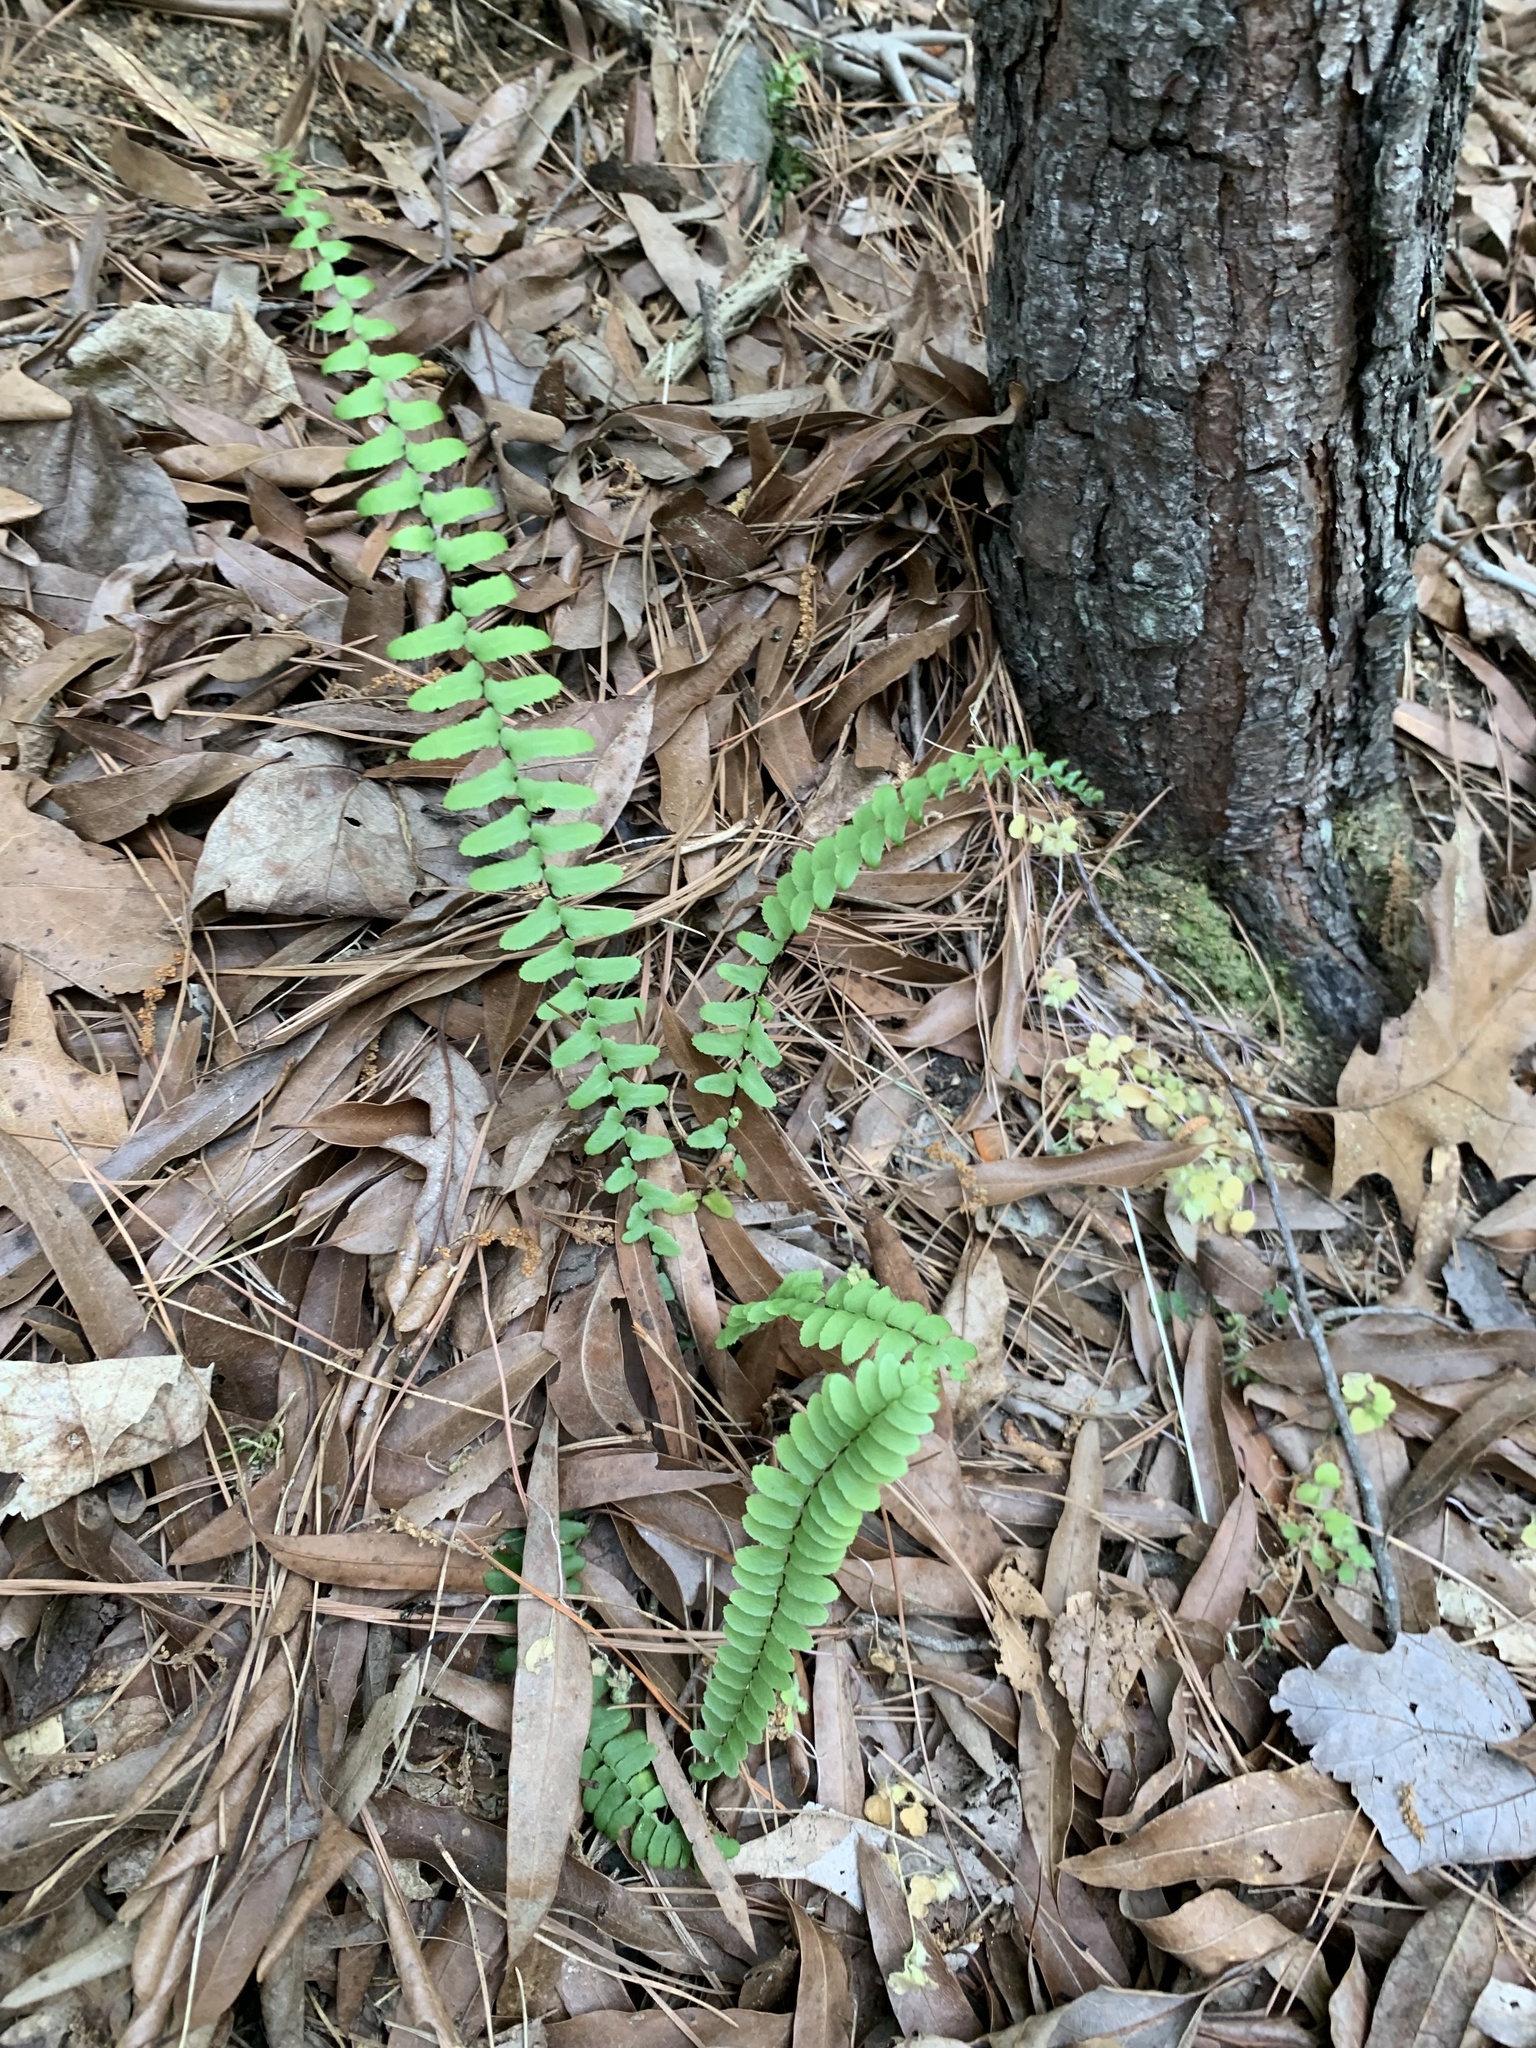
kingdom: Plantae
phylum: Tracheophyta
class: Polypodiopsida
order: Polypodiales
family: Aspleniaceae
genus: Asplenium
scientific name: Asplenium platyneuron
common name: Ebony spleenwort
